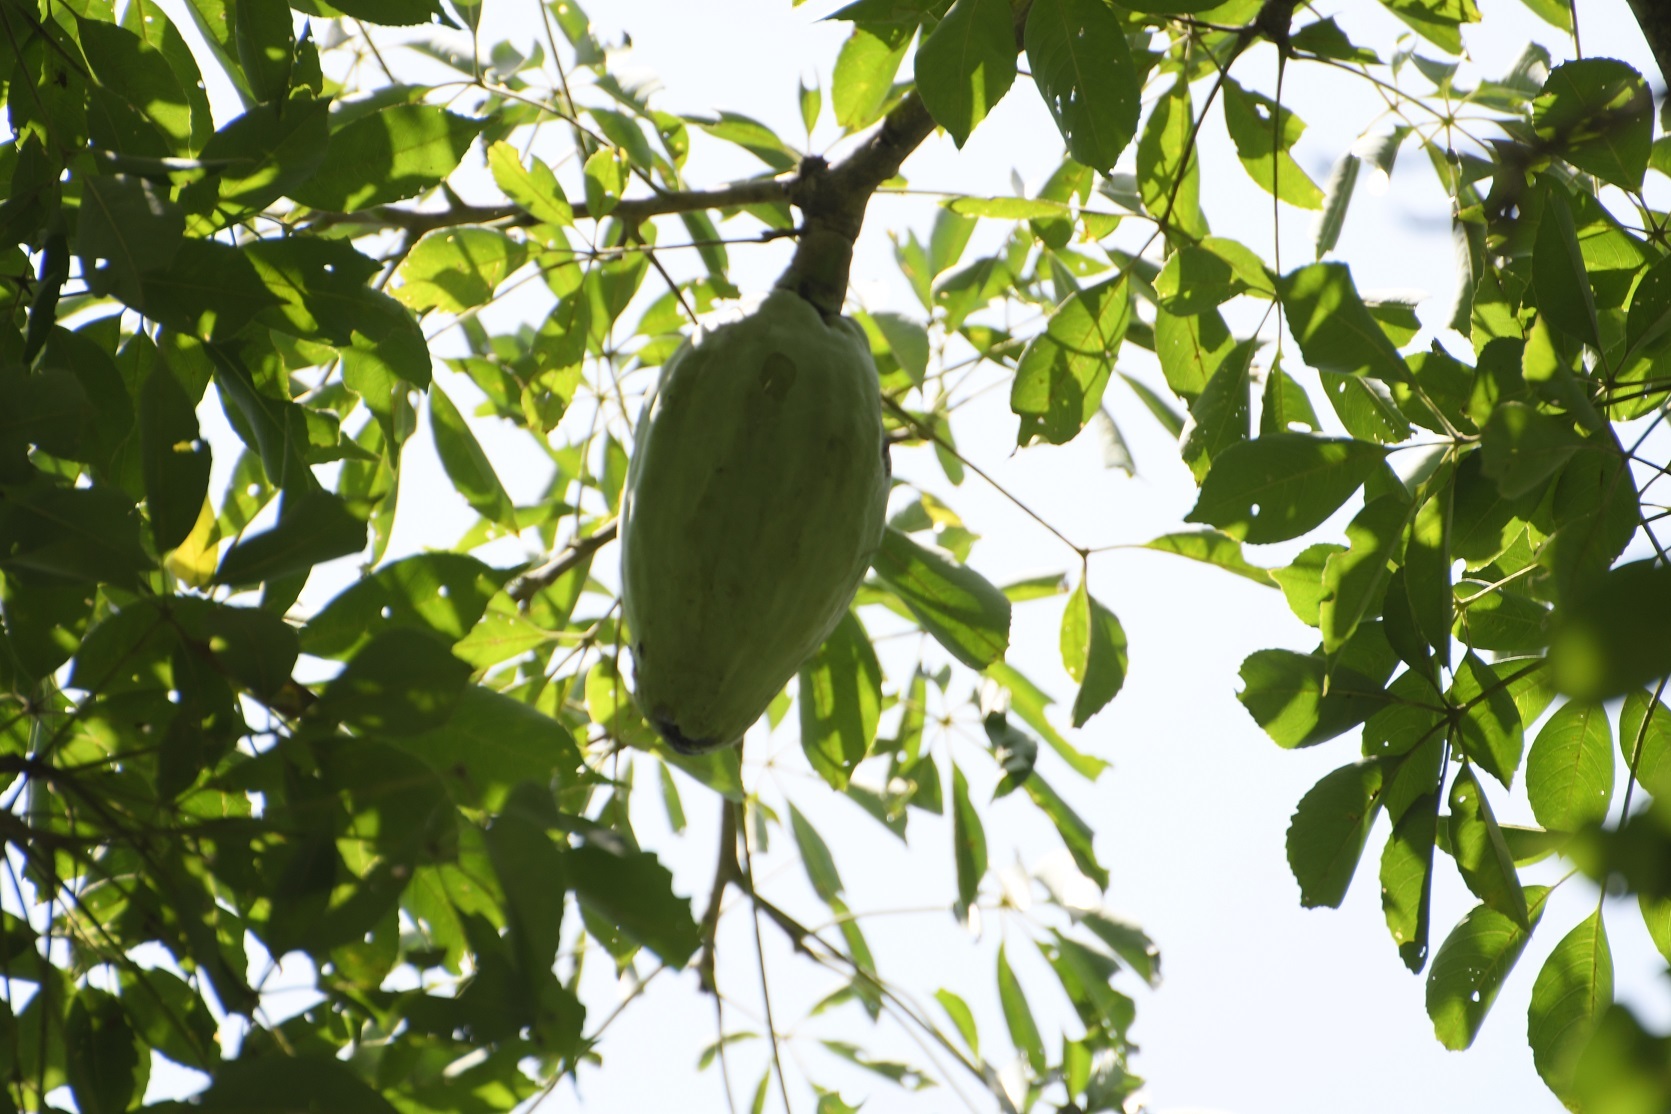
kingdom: Plantae
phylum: Tracheophyta
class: Magnoliopsida
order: Malvales
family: Malvaceae
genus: Ceiba
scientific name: Ceiba aesculifolia
